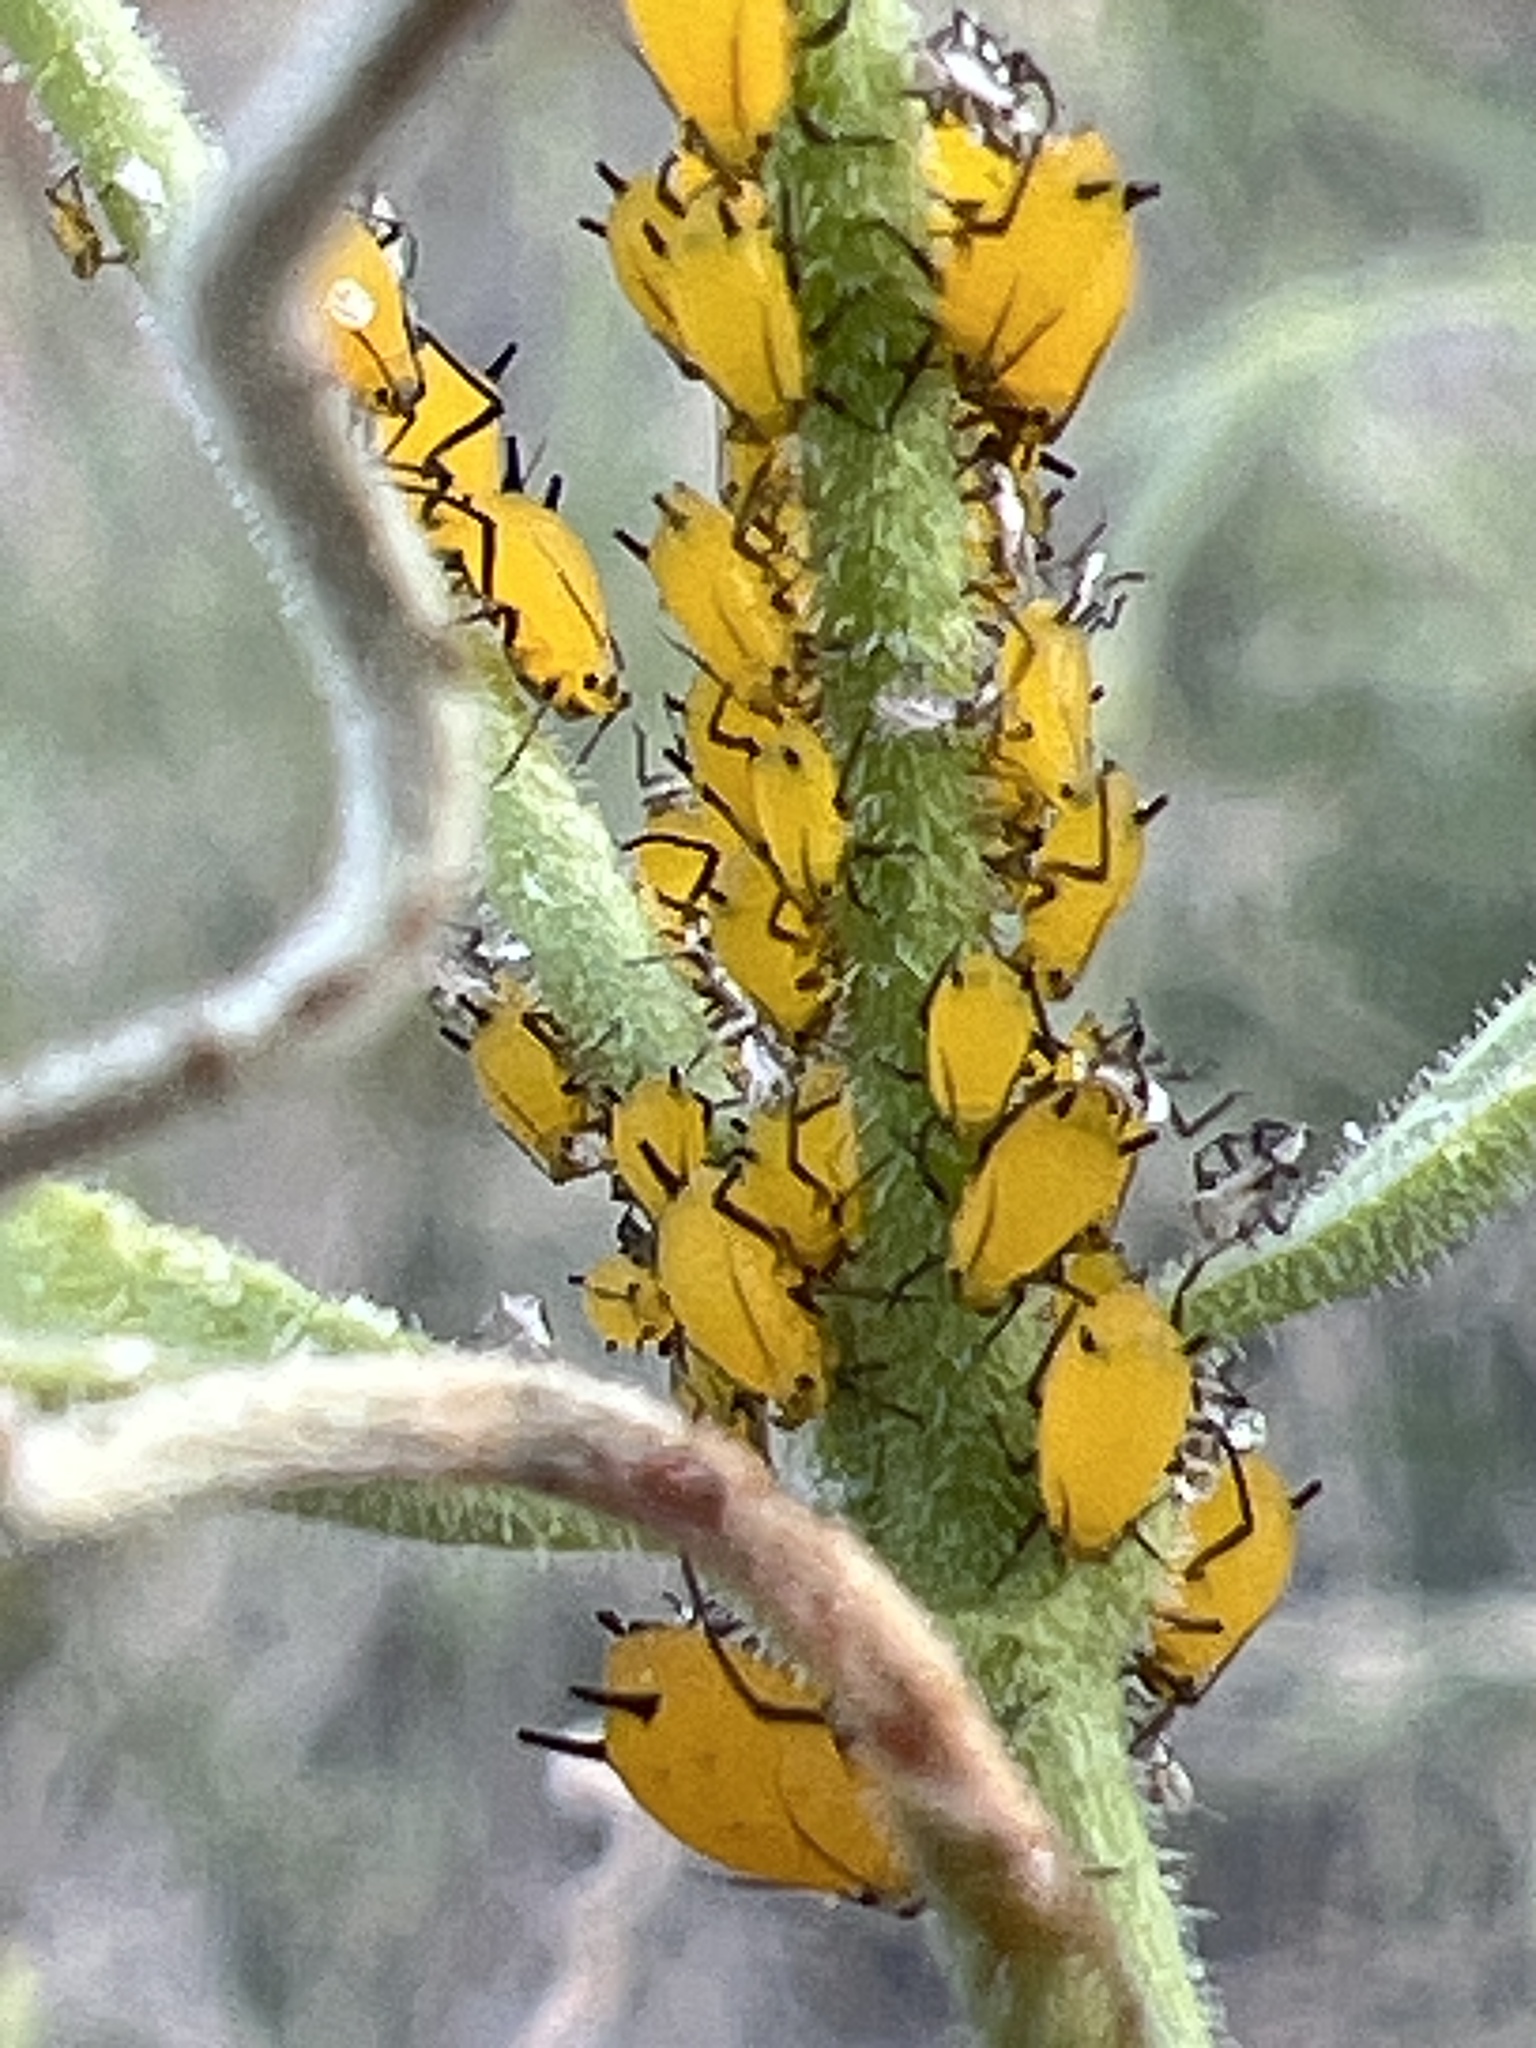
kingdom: Animalia
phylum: Arthropoda
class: Insecta
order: Hemiptera
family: Aphididae
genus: Aphis
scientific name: Aphis nerii
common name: Oleander aphid
